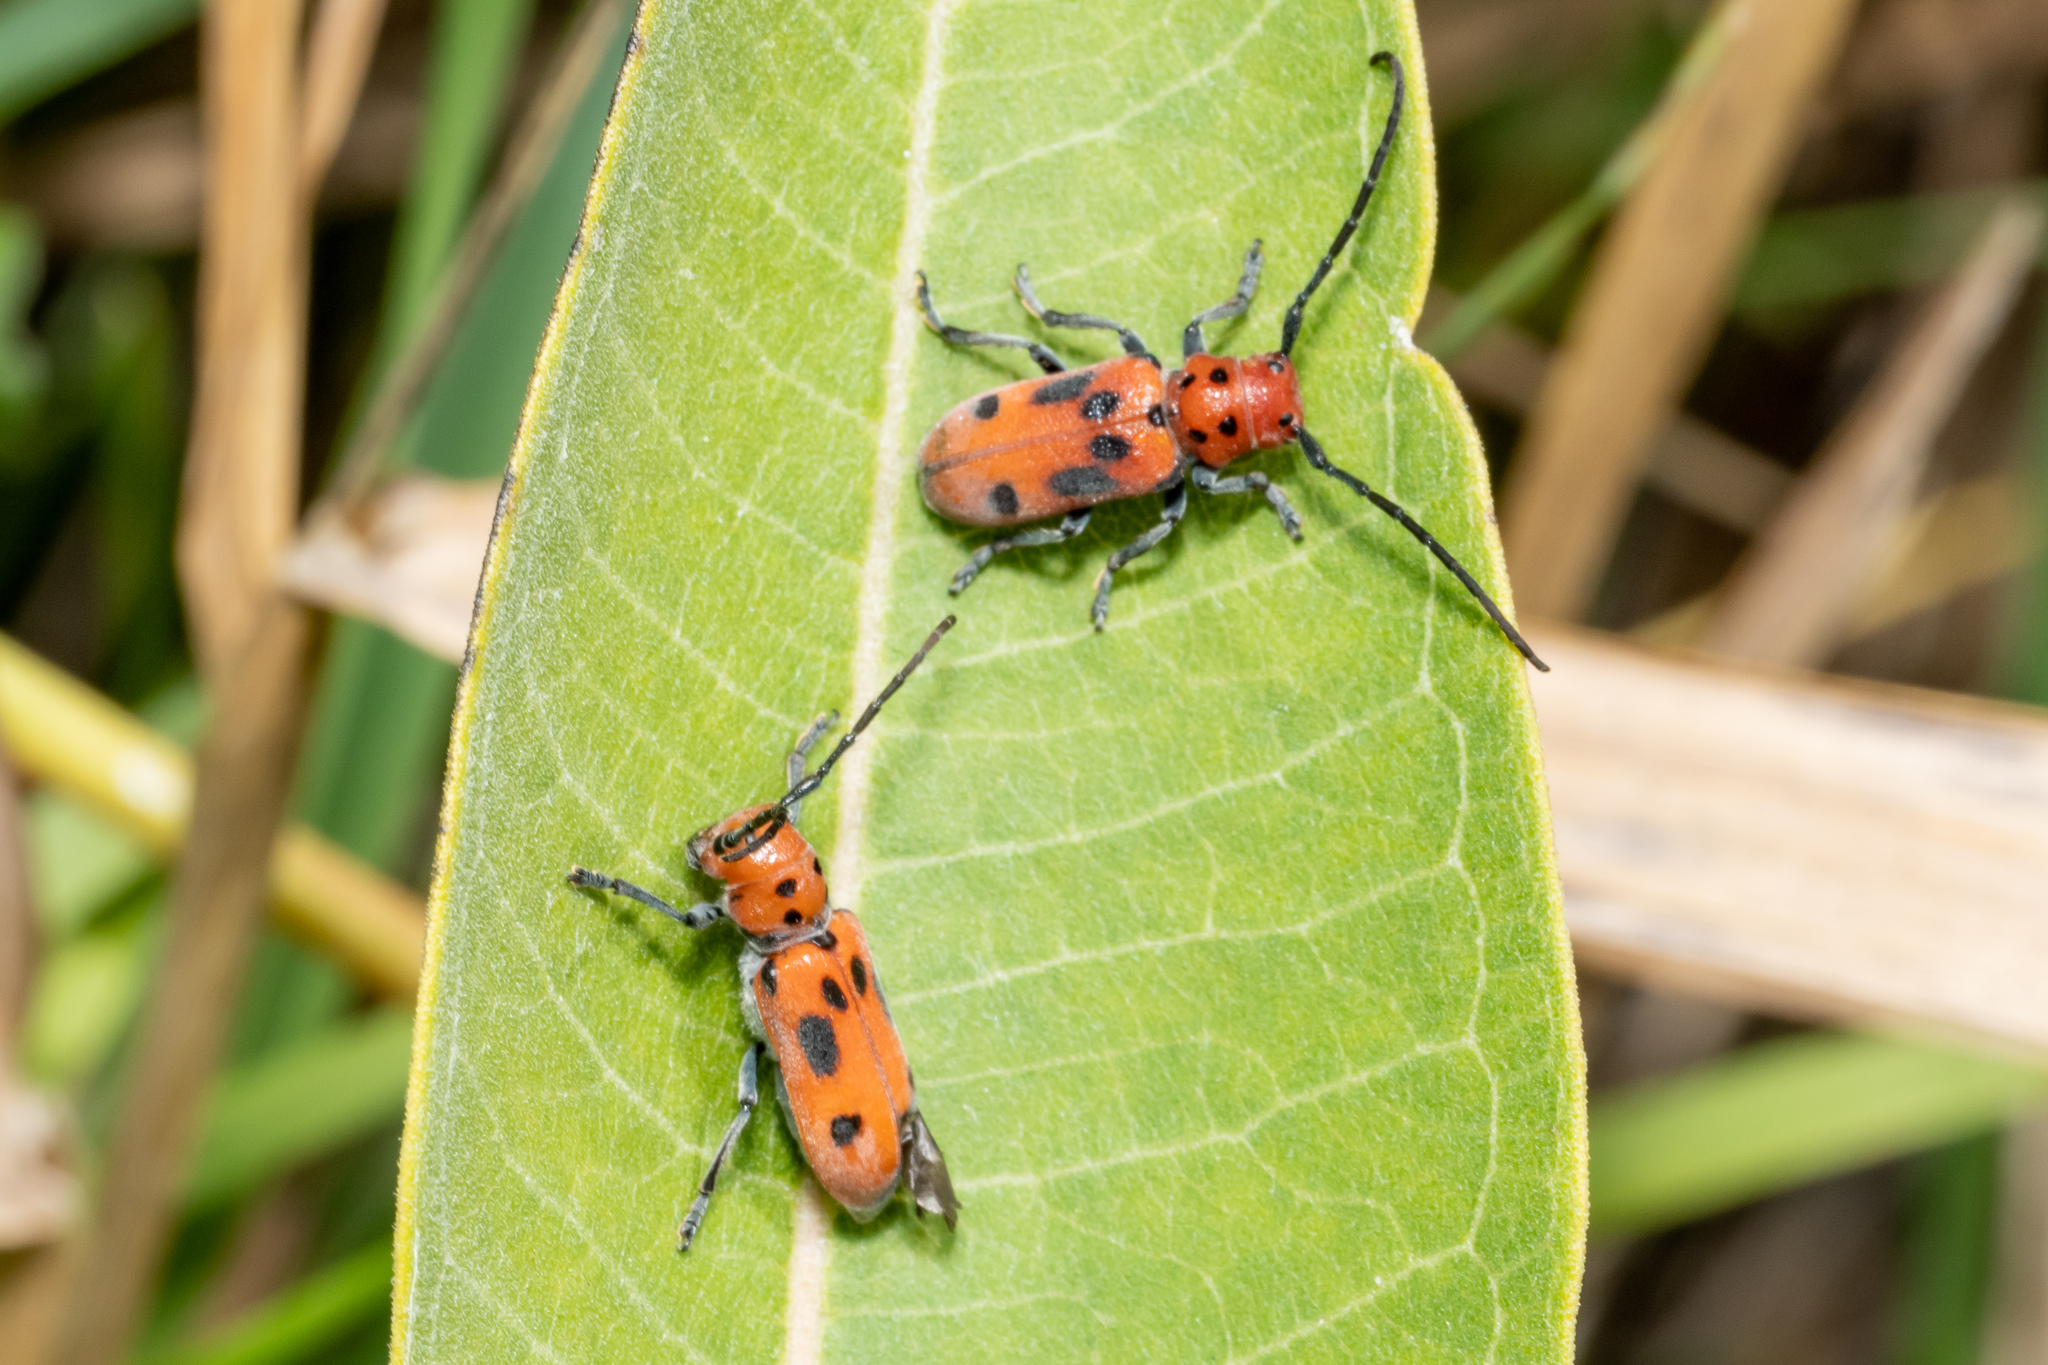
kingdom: Animalia
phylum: Arthropoda
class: Insecta
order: Coleoptera
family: Cerambycidae
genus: Tetraopes
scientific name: Tetraopes tetrophthalmus
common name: Red milkweed beetle
